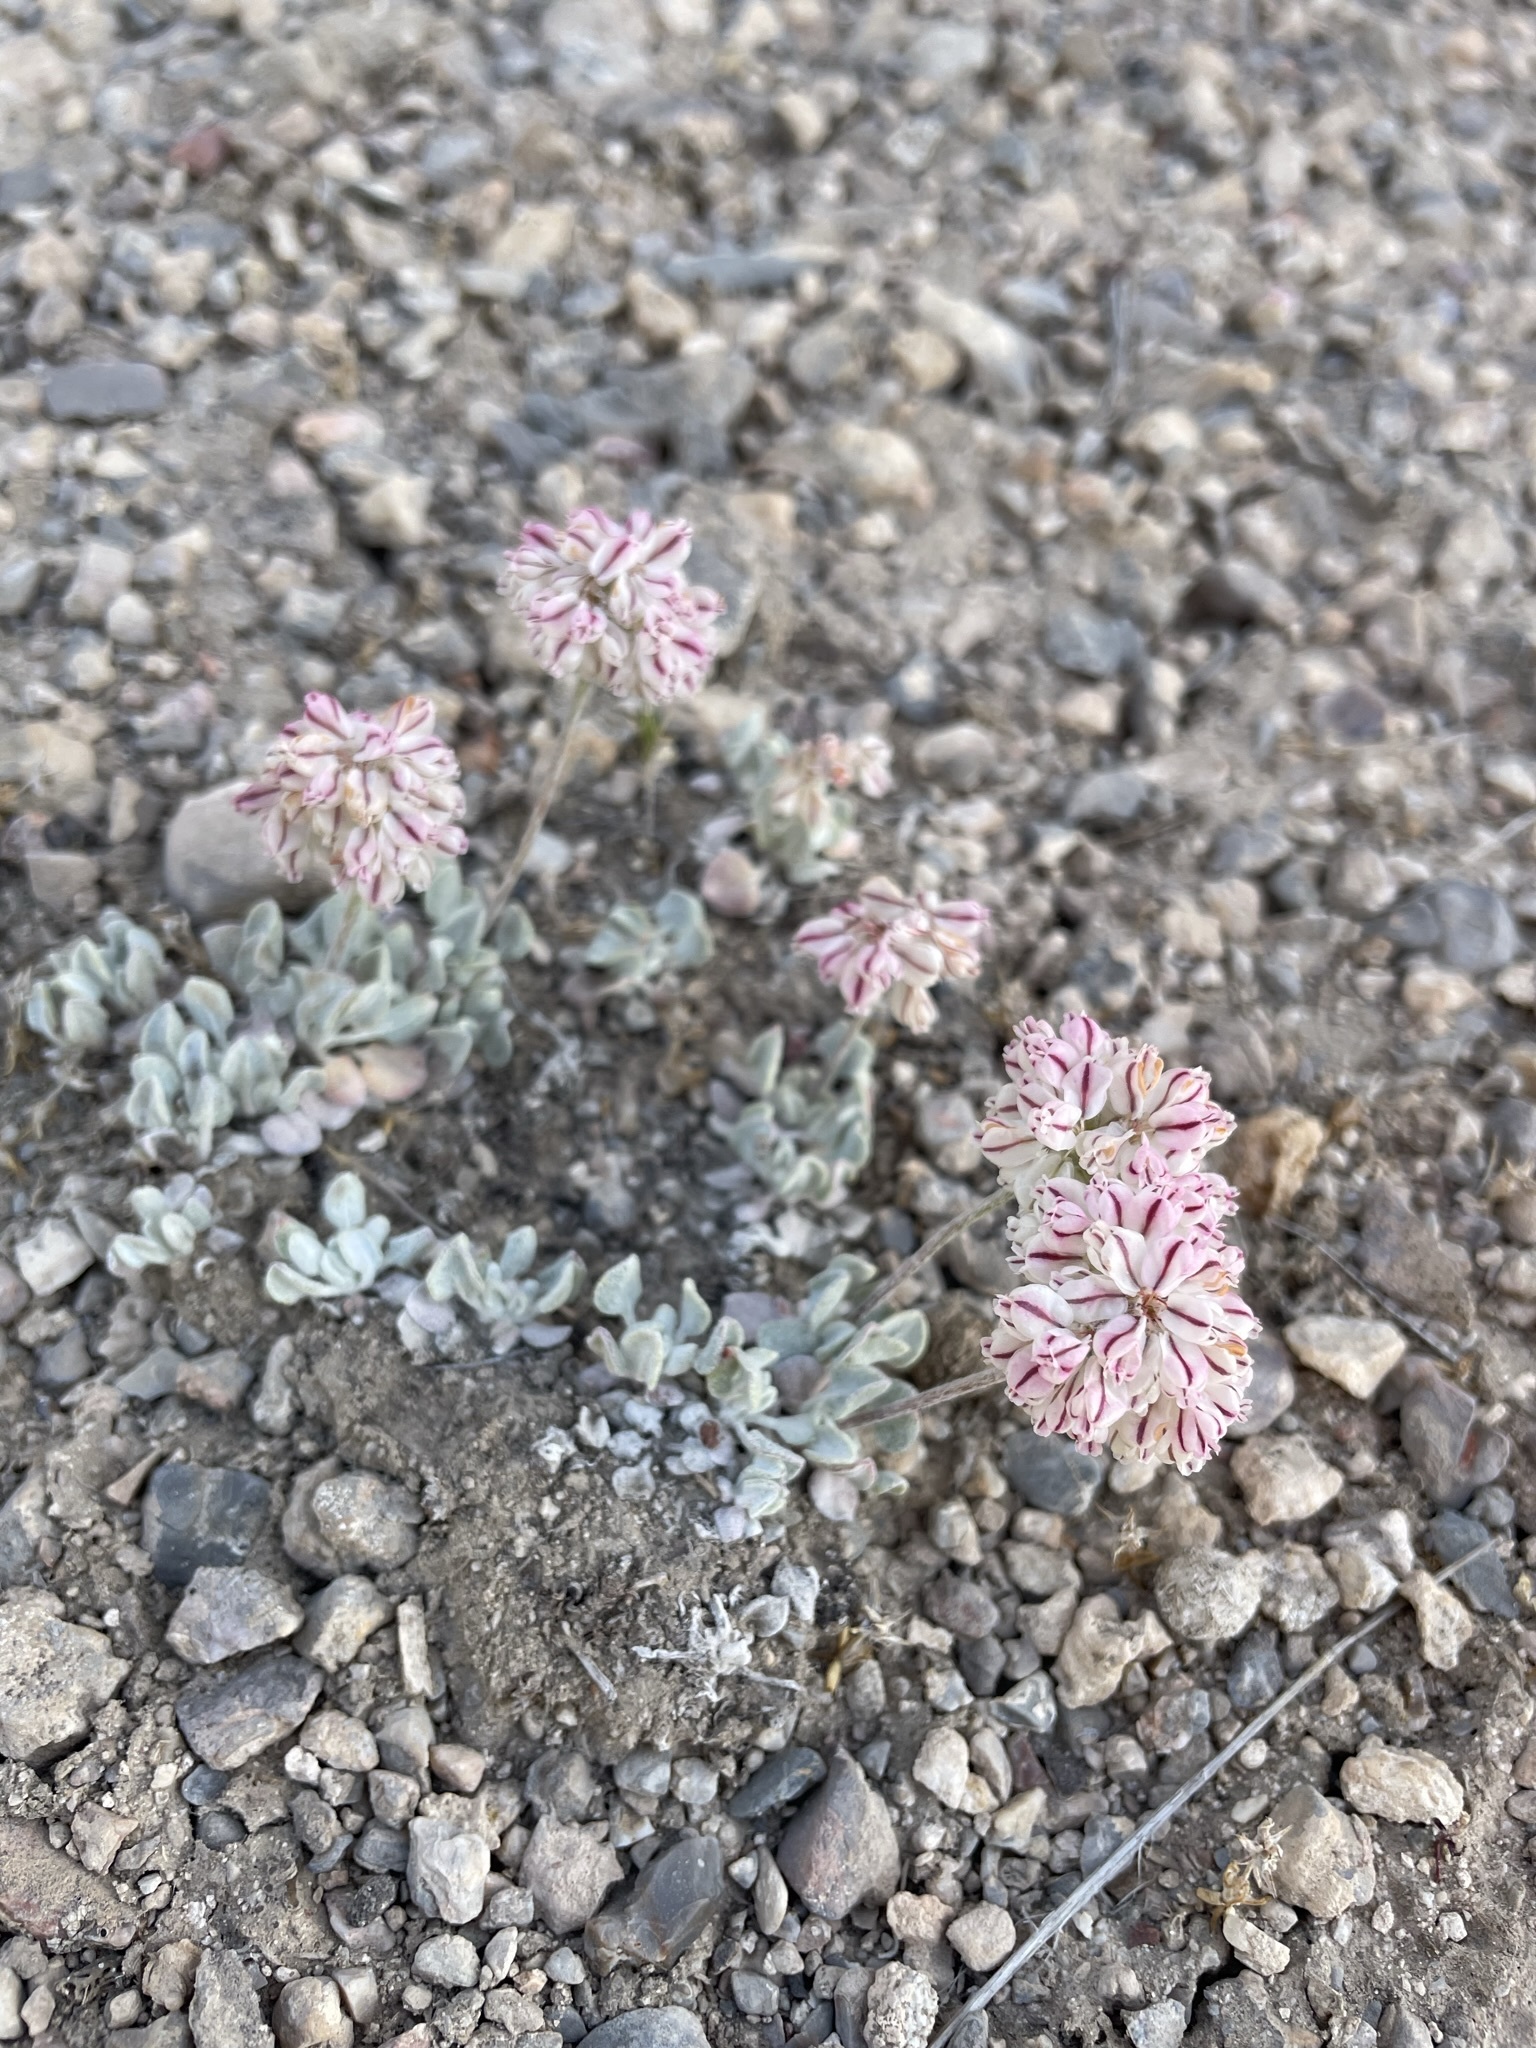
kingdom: Plantae
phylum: Tracheophyta
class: Magnoliopsida
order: Caryophyllales
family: Polygonaceae
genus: Eriogonum
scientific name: Eriogonum ovalifolium
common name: Cushion buckwheat
